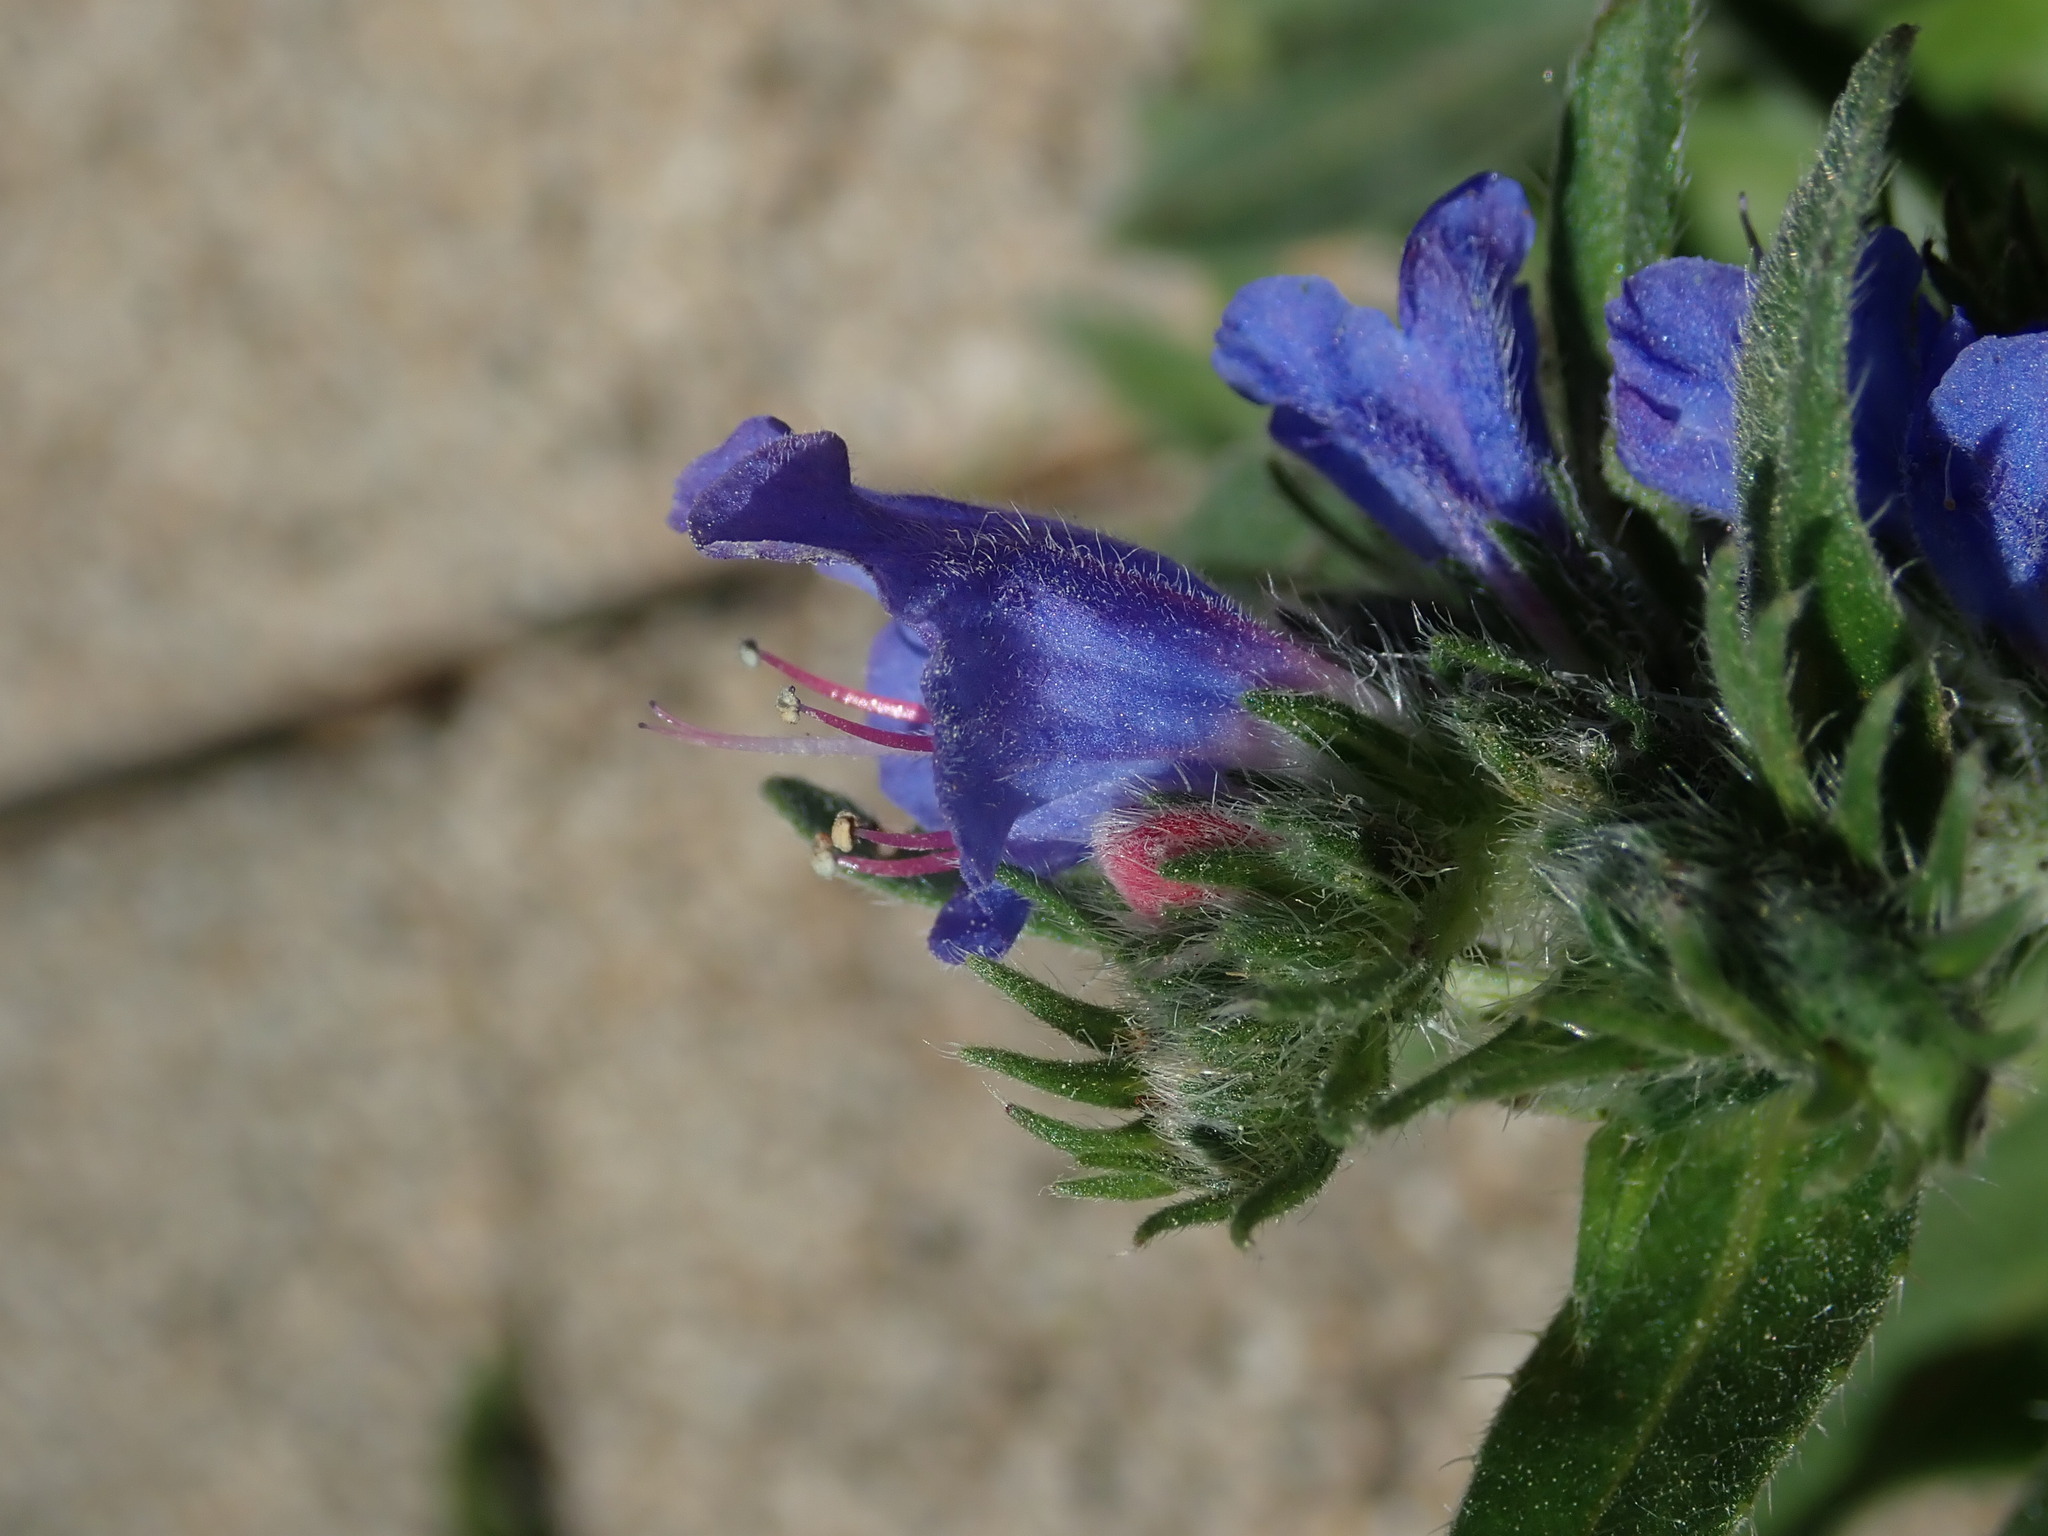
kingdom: Plantae
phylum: Tracheophyta
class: Magnoliopsida
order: Boraginales
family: Boraginaceae
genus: Echium
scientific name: Echium vulgare
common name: Common viper's bugloss
